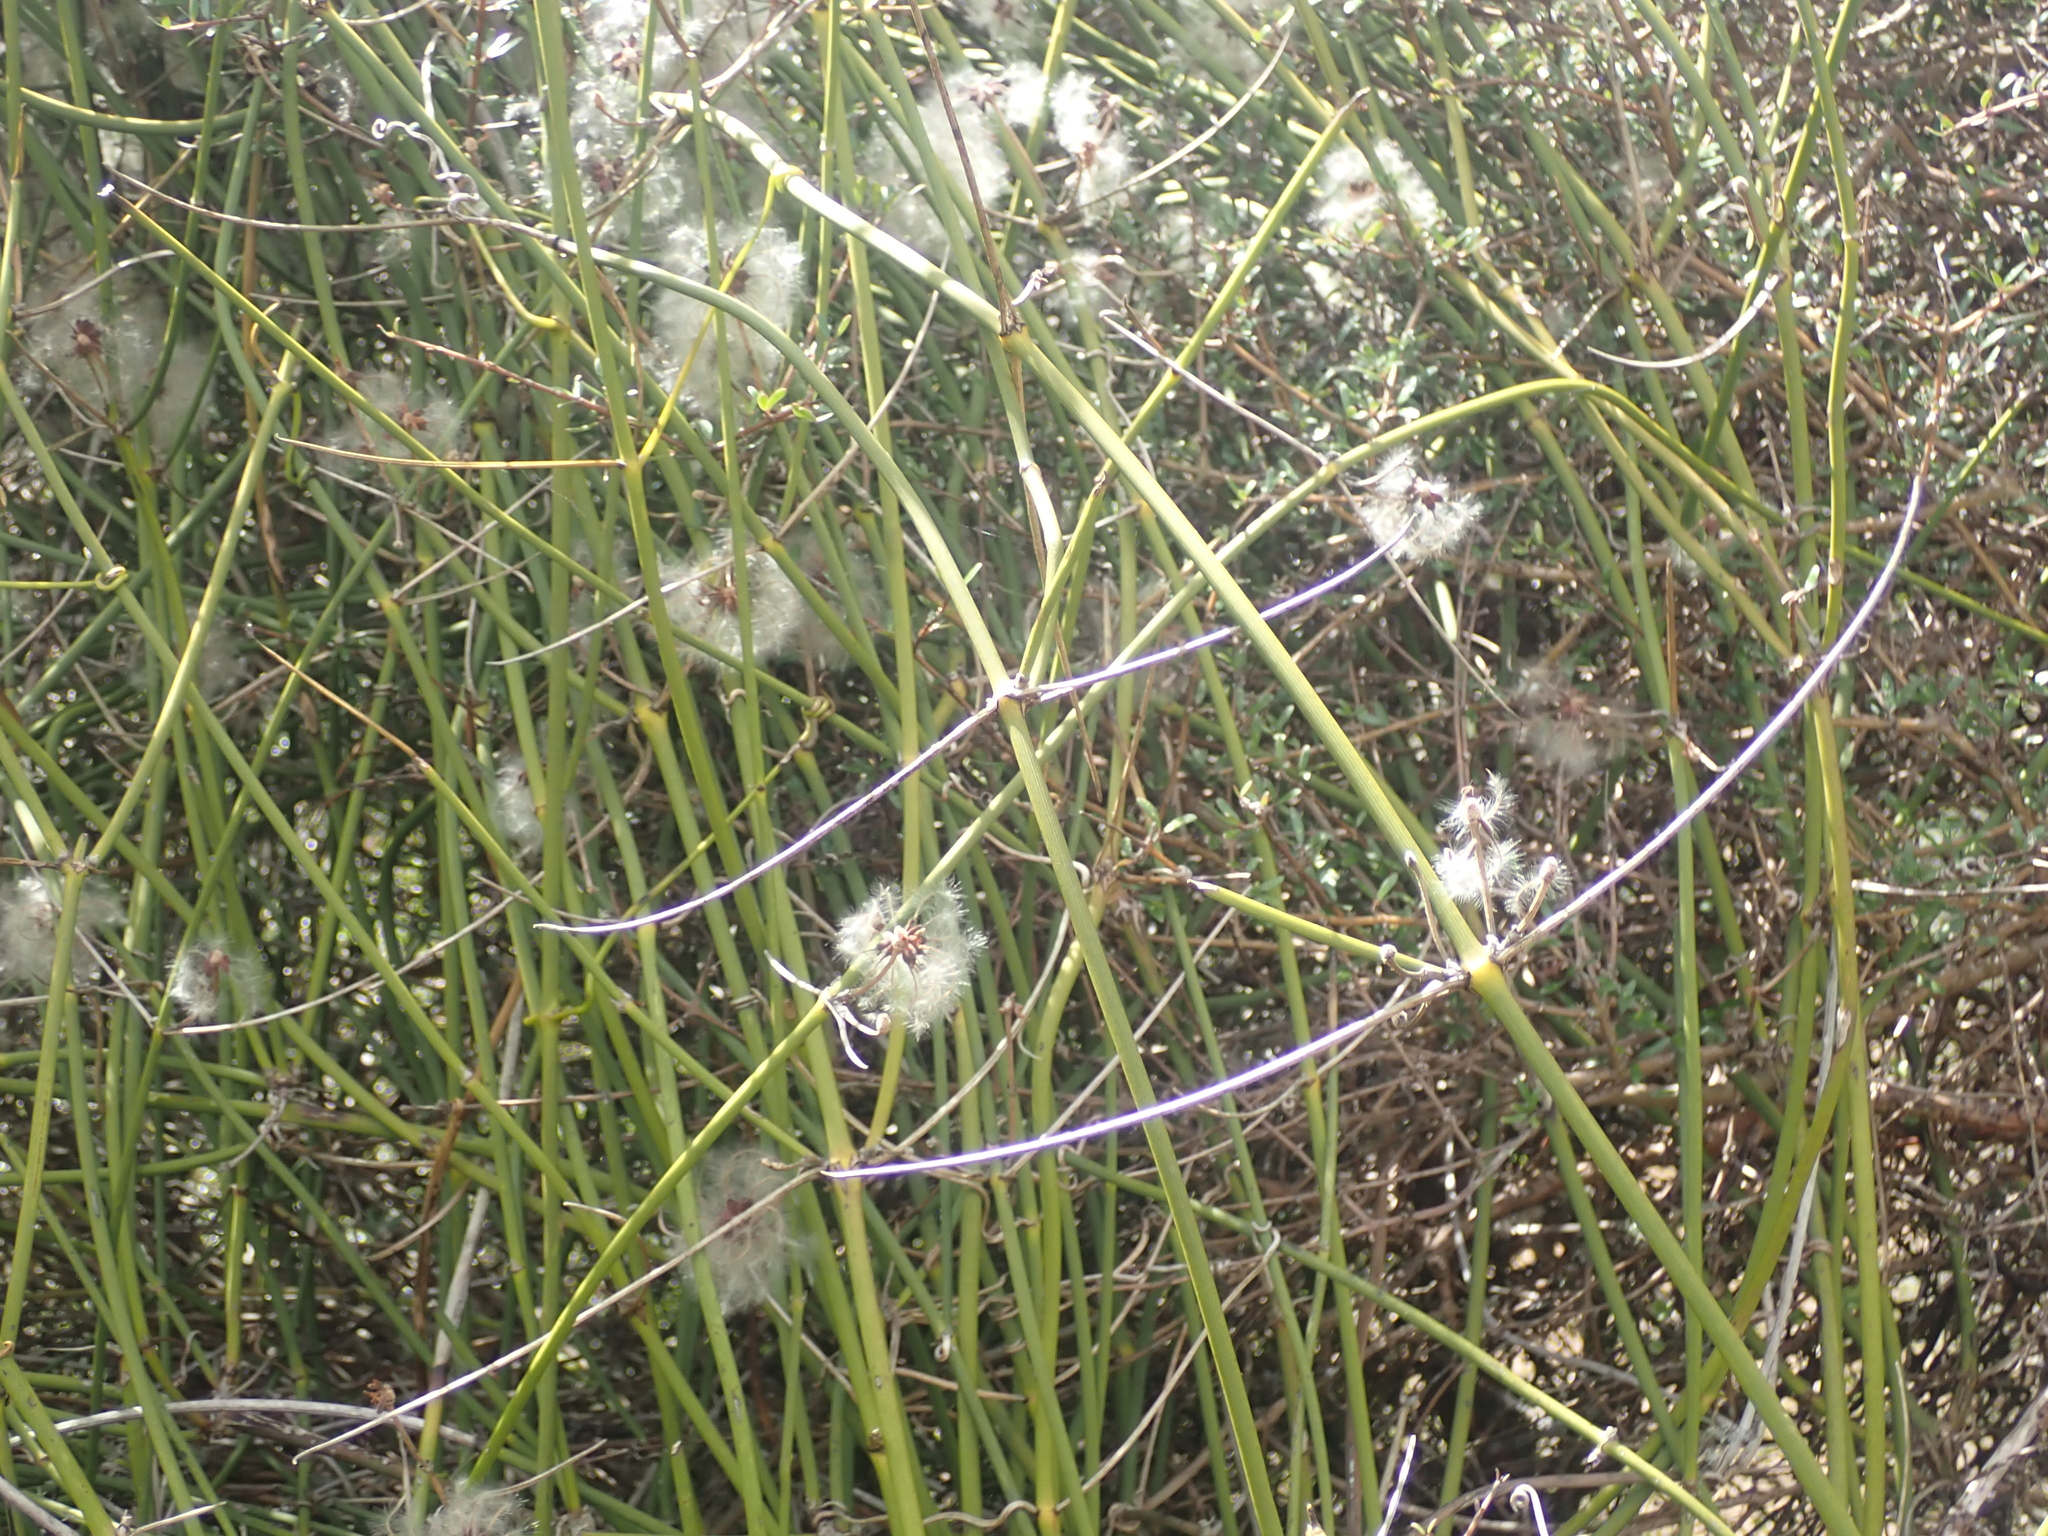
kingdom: Plantae
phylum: Tracheophyta
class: Magnoliopsida
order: Ranunculales
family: Ranunculaceae
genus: Clematis
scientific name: Clematis afoliata
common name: Rush-stem clematis
